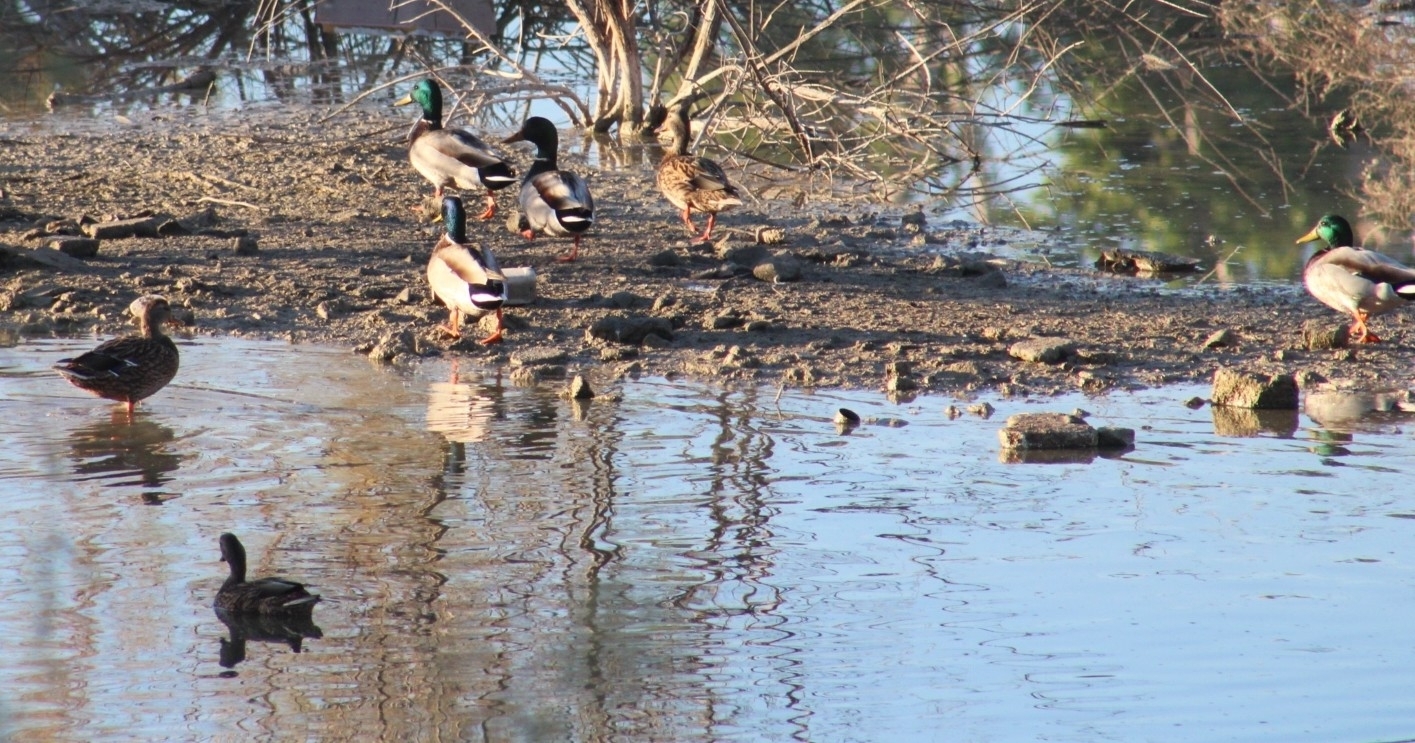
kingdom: Animalia
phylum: Chordata
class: Aves
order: Anseriformes
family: Anatidae
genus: Anas
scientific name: Anas platyrhynchos
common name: Mallard
